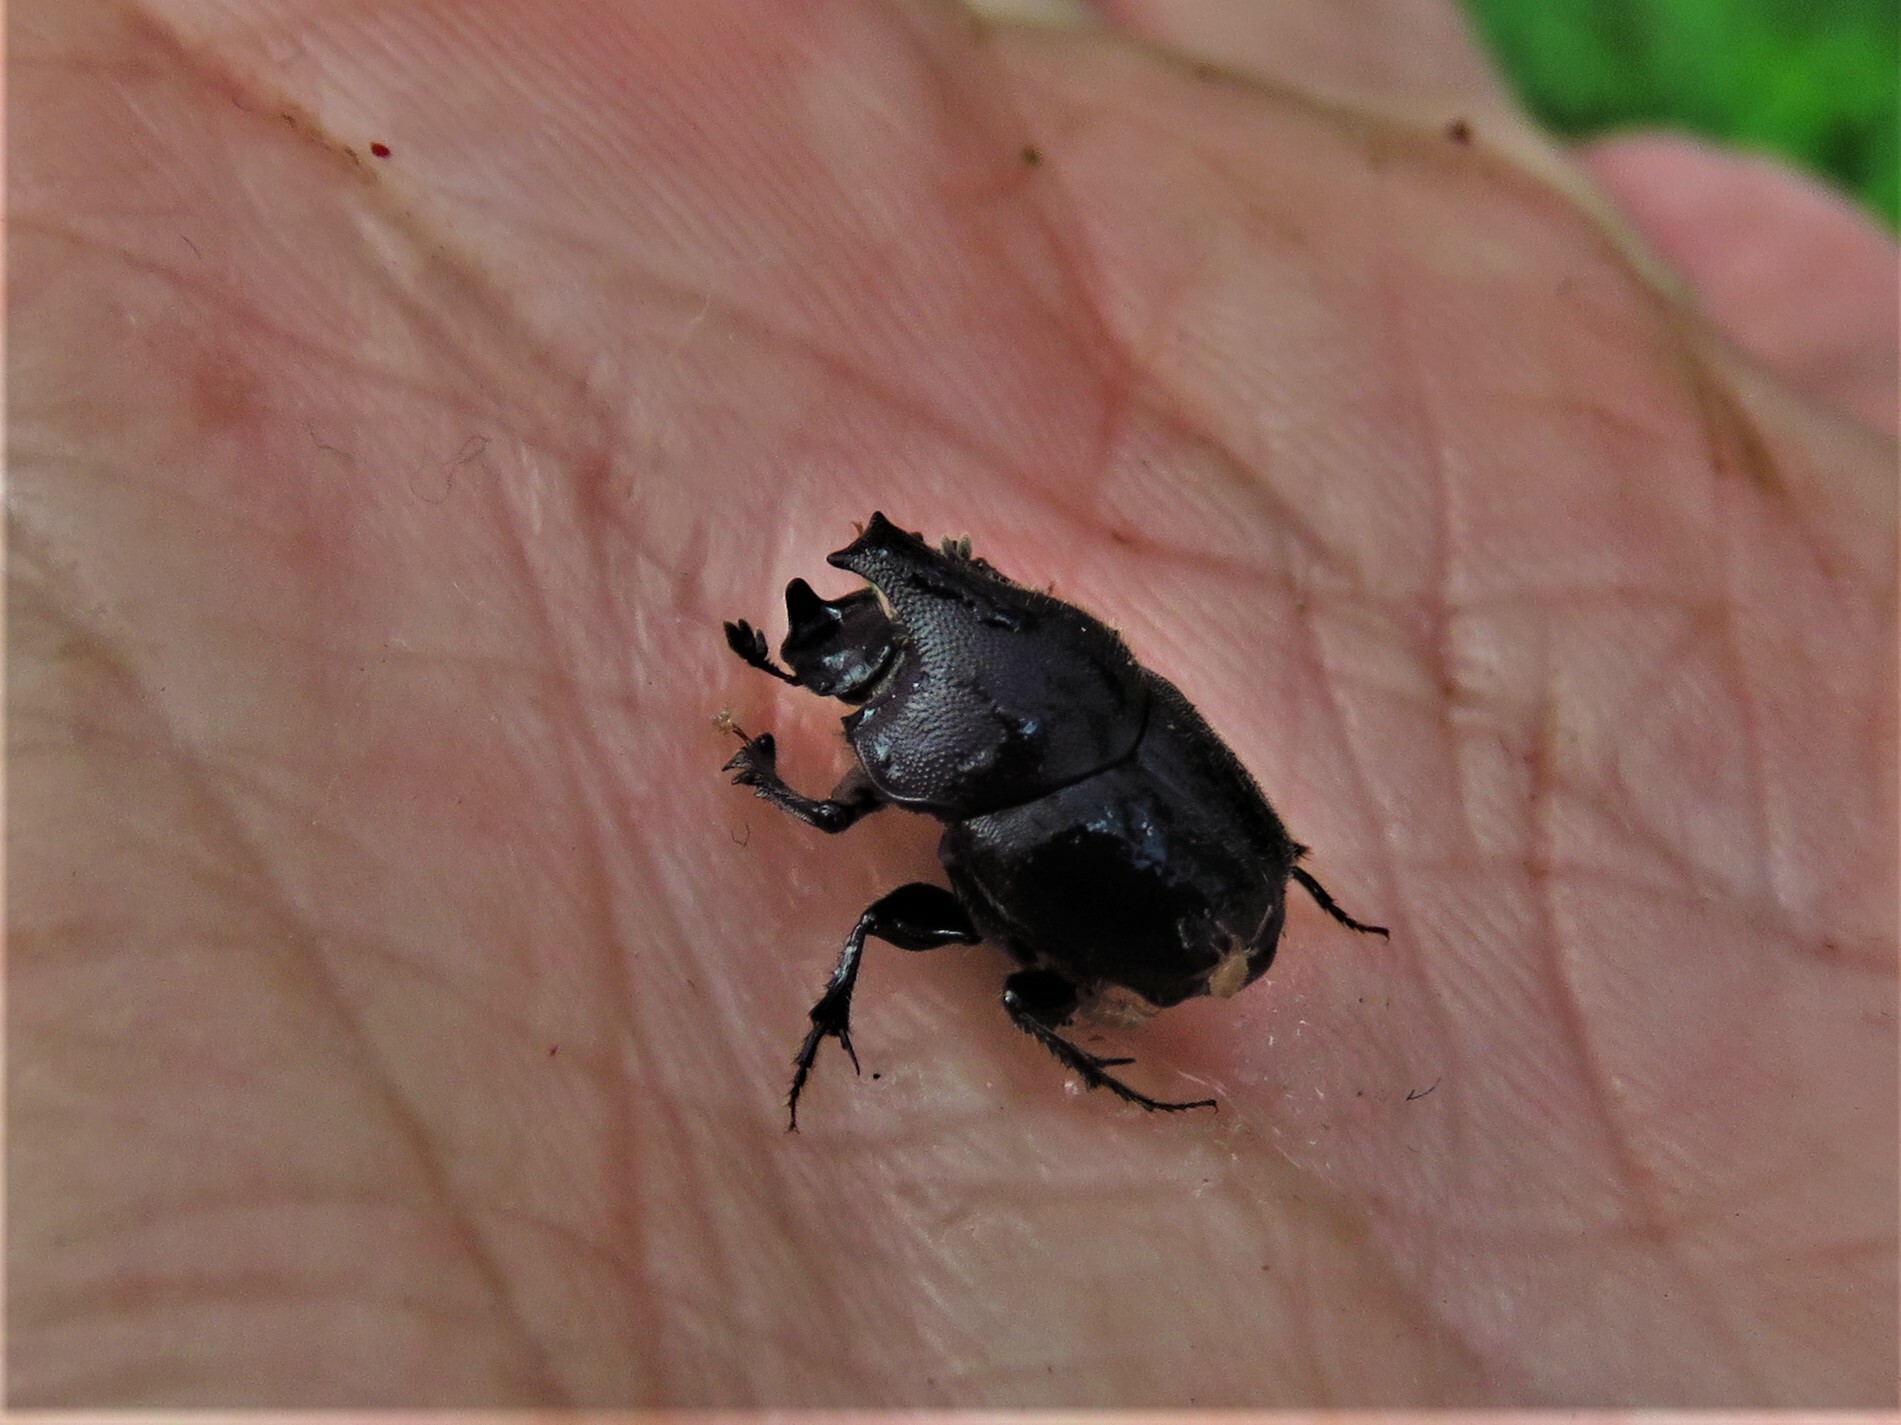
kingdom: Animalia
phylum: Arthropoda
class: Insecta
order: Coleoptera
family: Scarabaeidae
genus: Onthophagus
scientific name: Onthophagus hecate
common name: Scooped scarab
